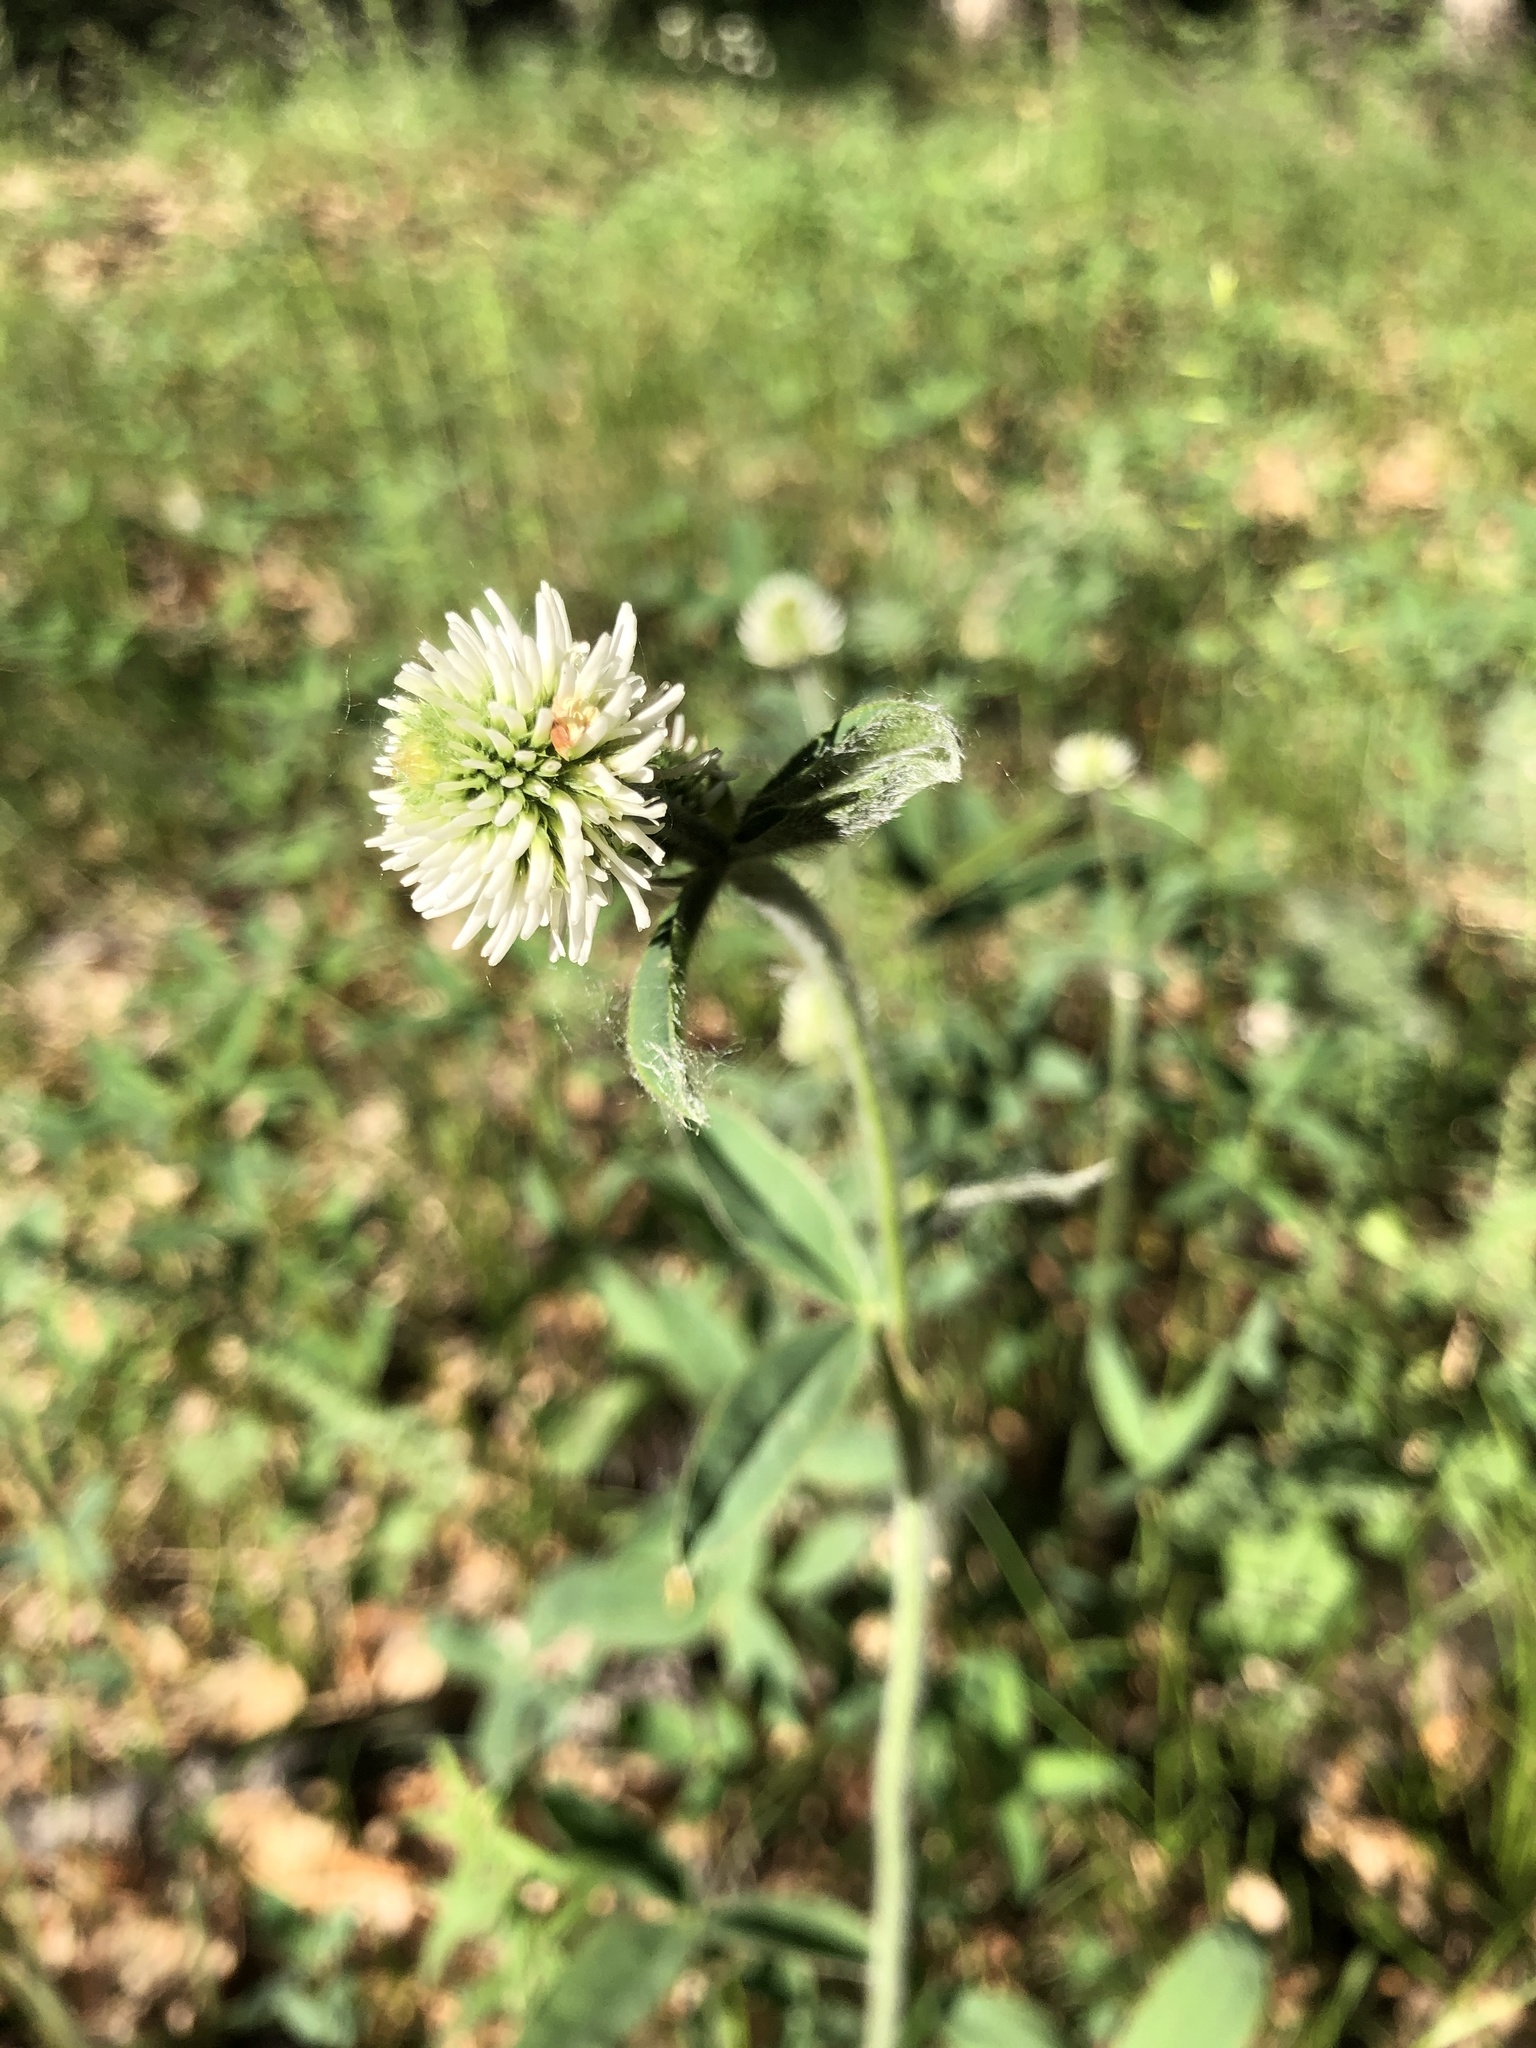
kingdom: Plantae
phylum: Tracheophyta
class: Magnoliopsida
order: Fabales
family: Fabaceae
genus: Trifolium
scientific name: Trifolium montanum
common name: Mountain clover
